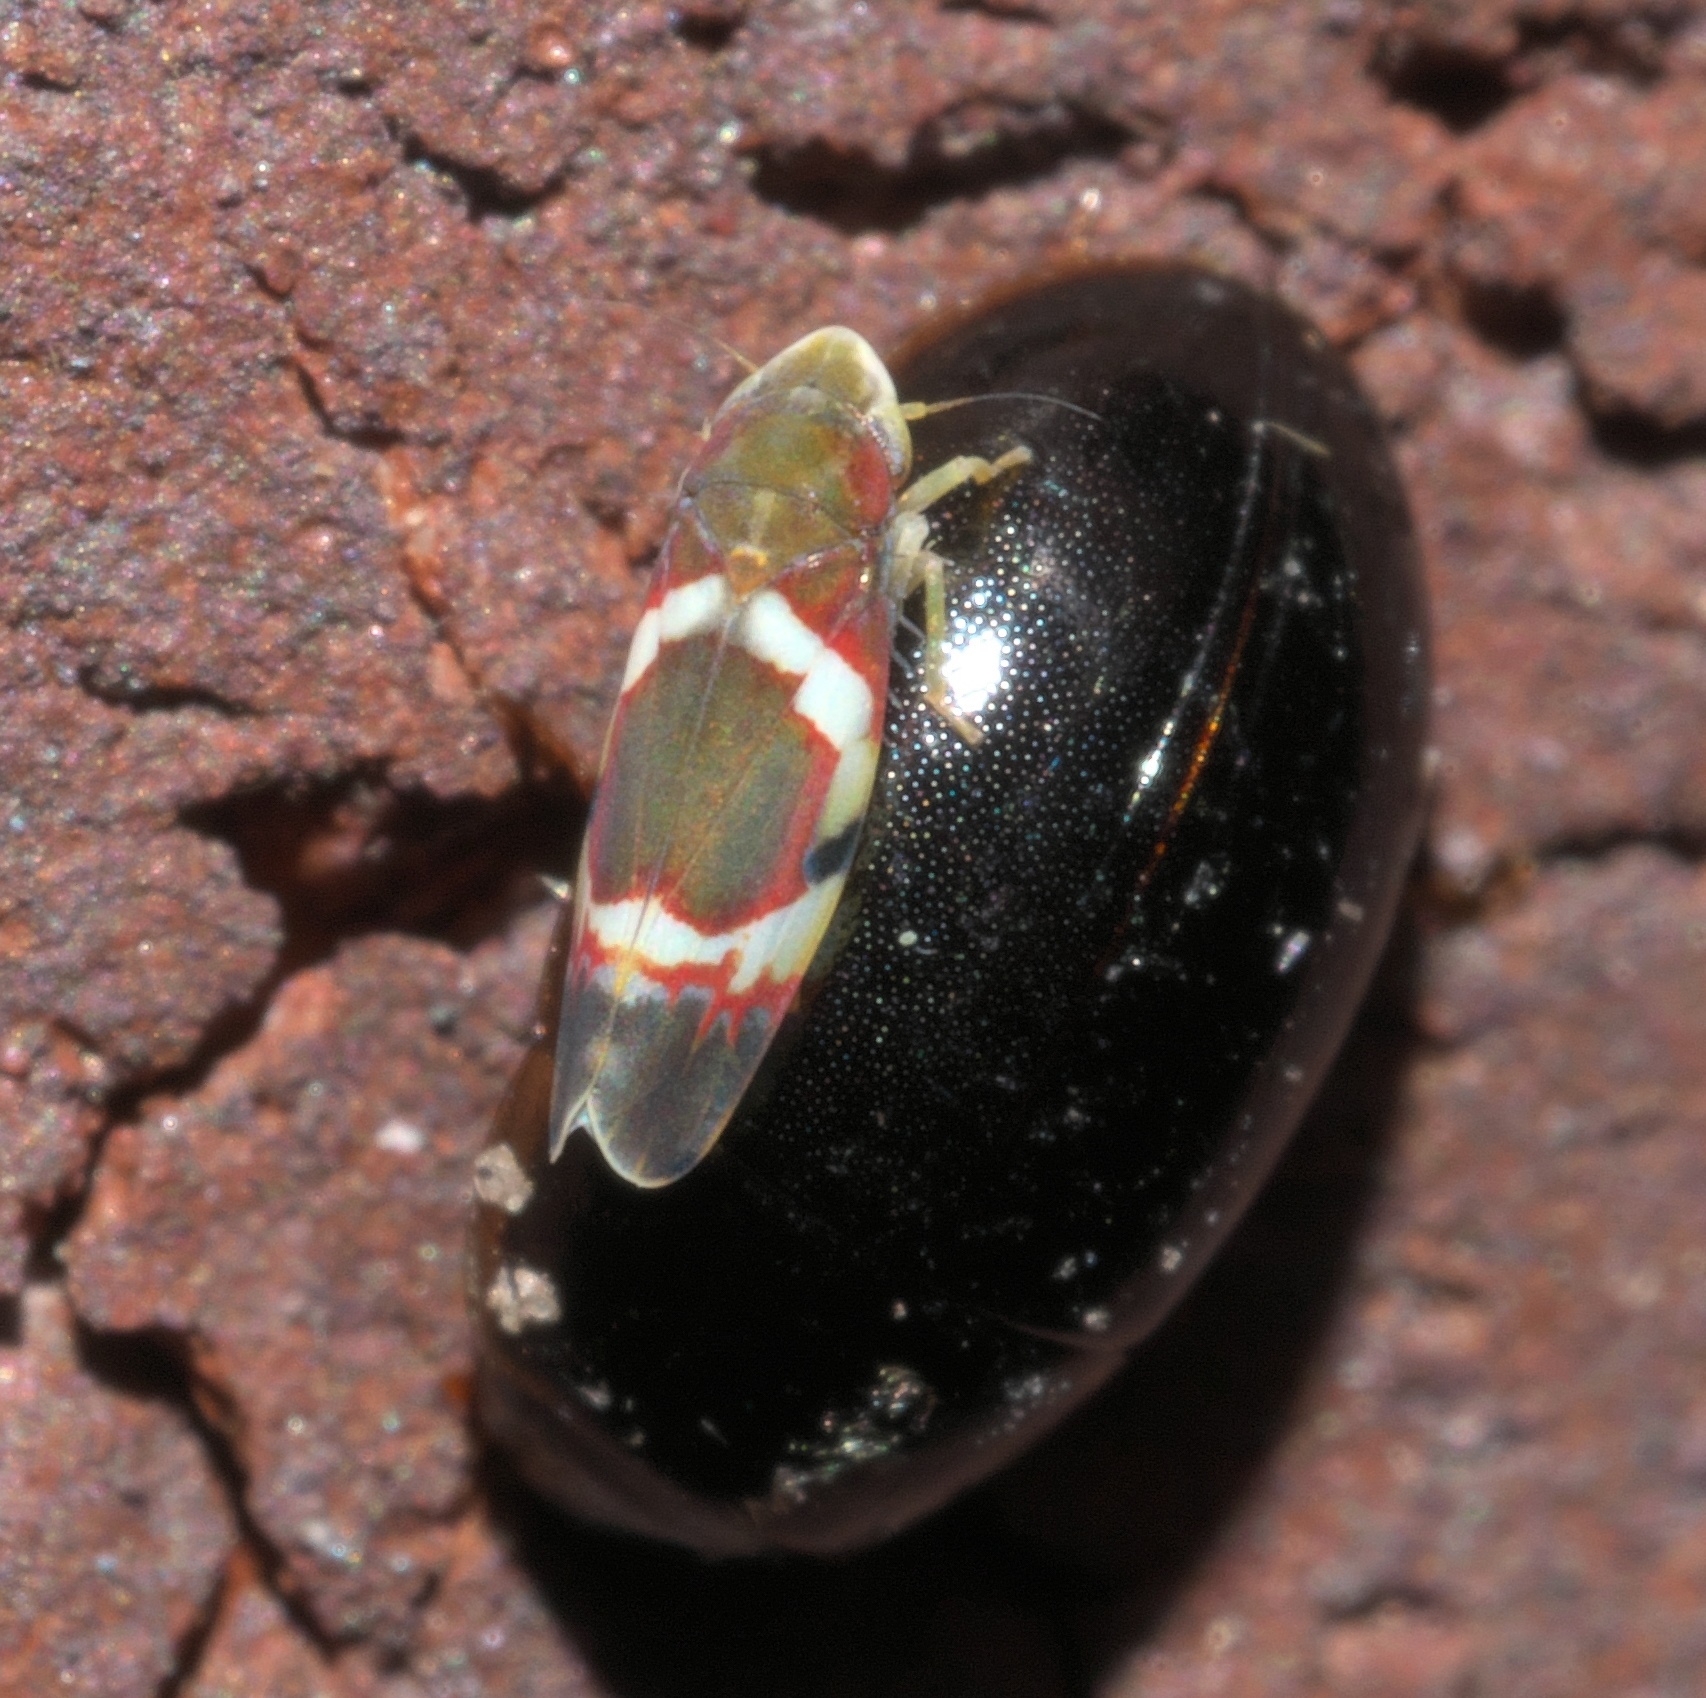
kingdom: Animalia
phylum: Arthropoda
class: Insecta
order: Hemiptera
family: Cicadellidae
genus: Erythroneura
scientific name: Erythroneura vitis
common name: Grapevine leafhopper
